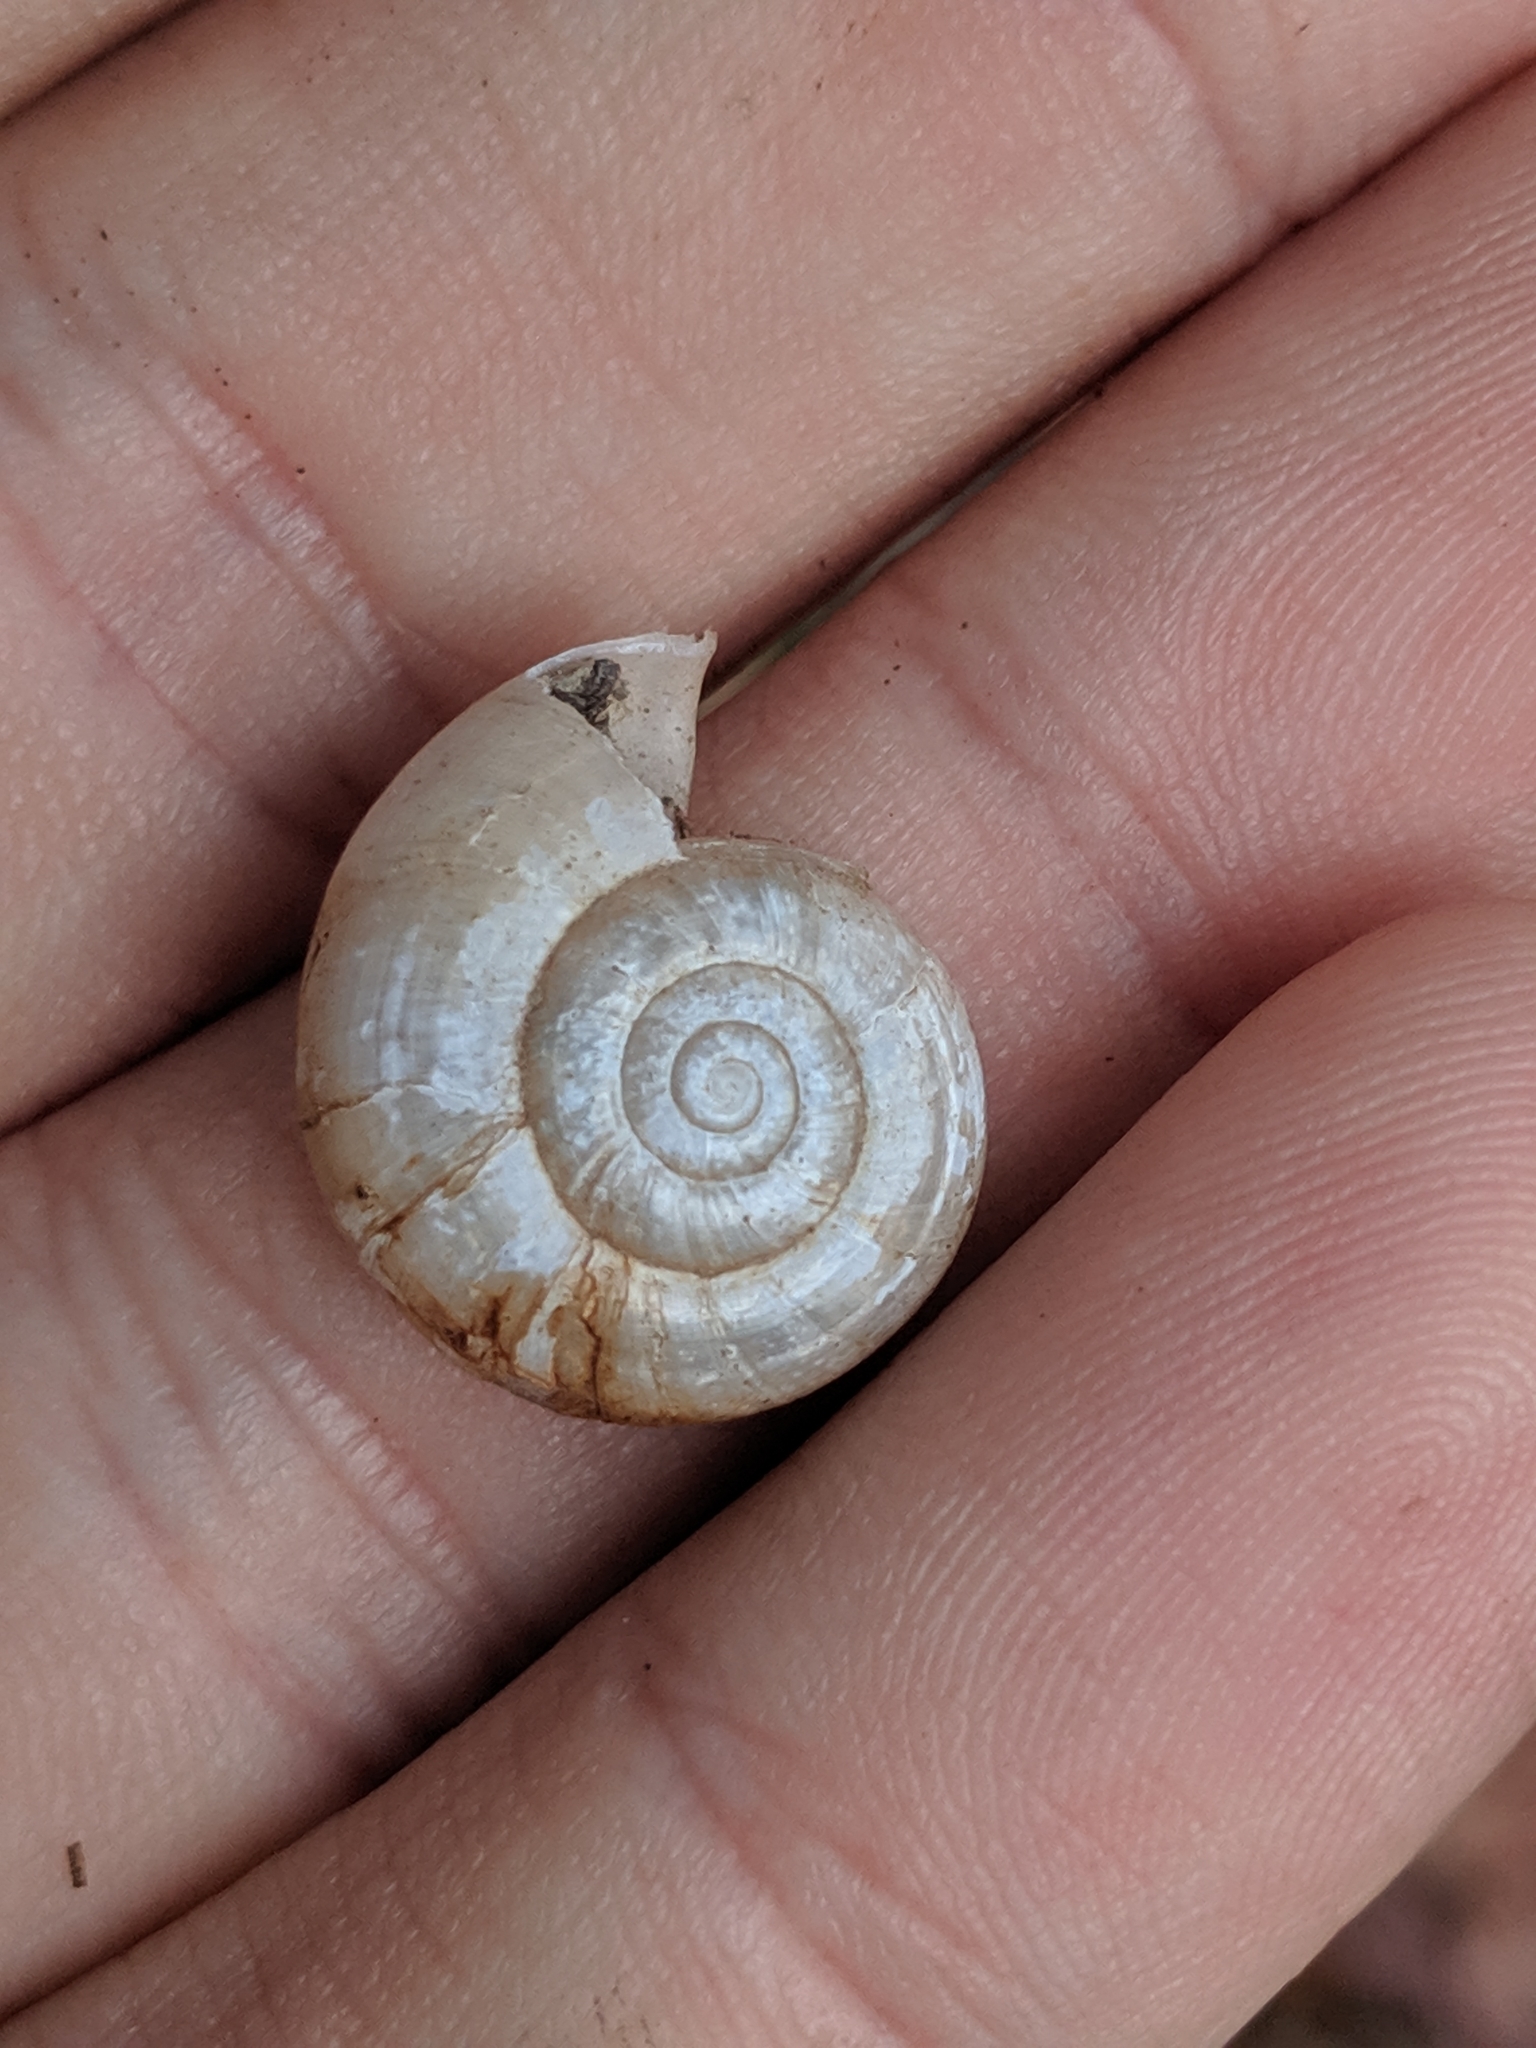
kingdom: Animalia
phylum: Mollusca
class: Gastropoda
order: Stylommatophora
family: Haplotrematidae
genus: Haplotrema
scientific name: Haplotrema concavum
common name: Gray-foot lancetooth
